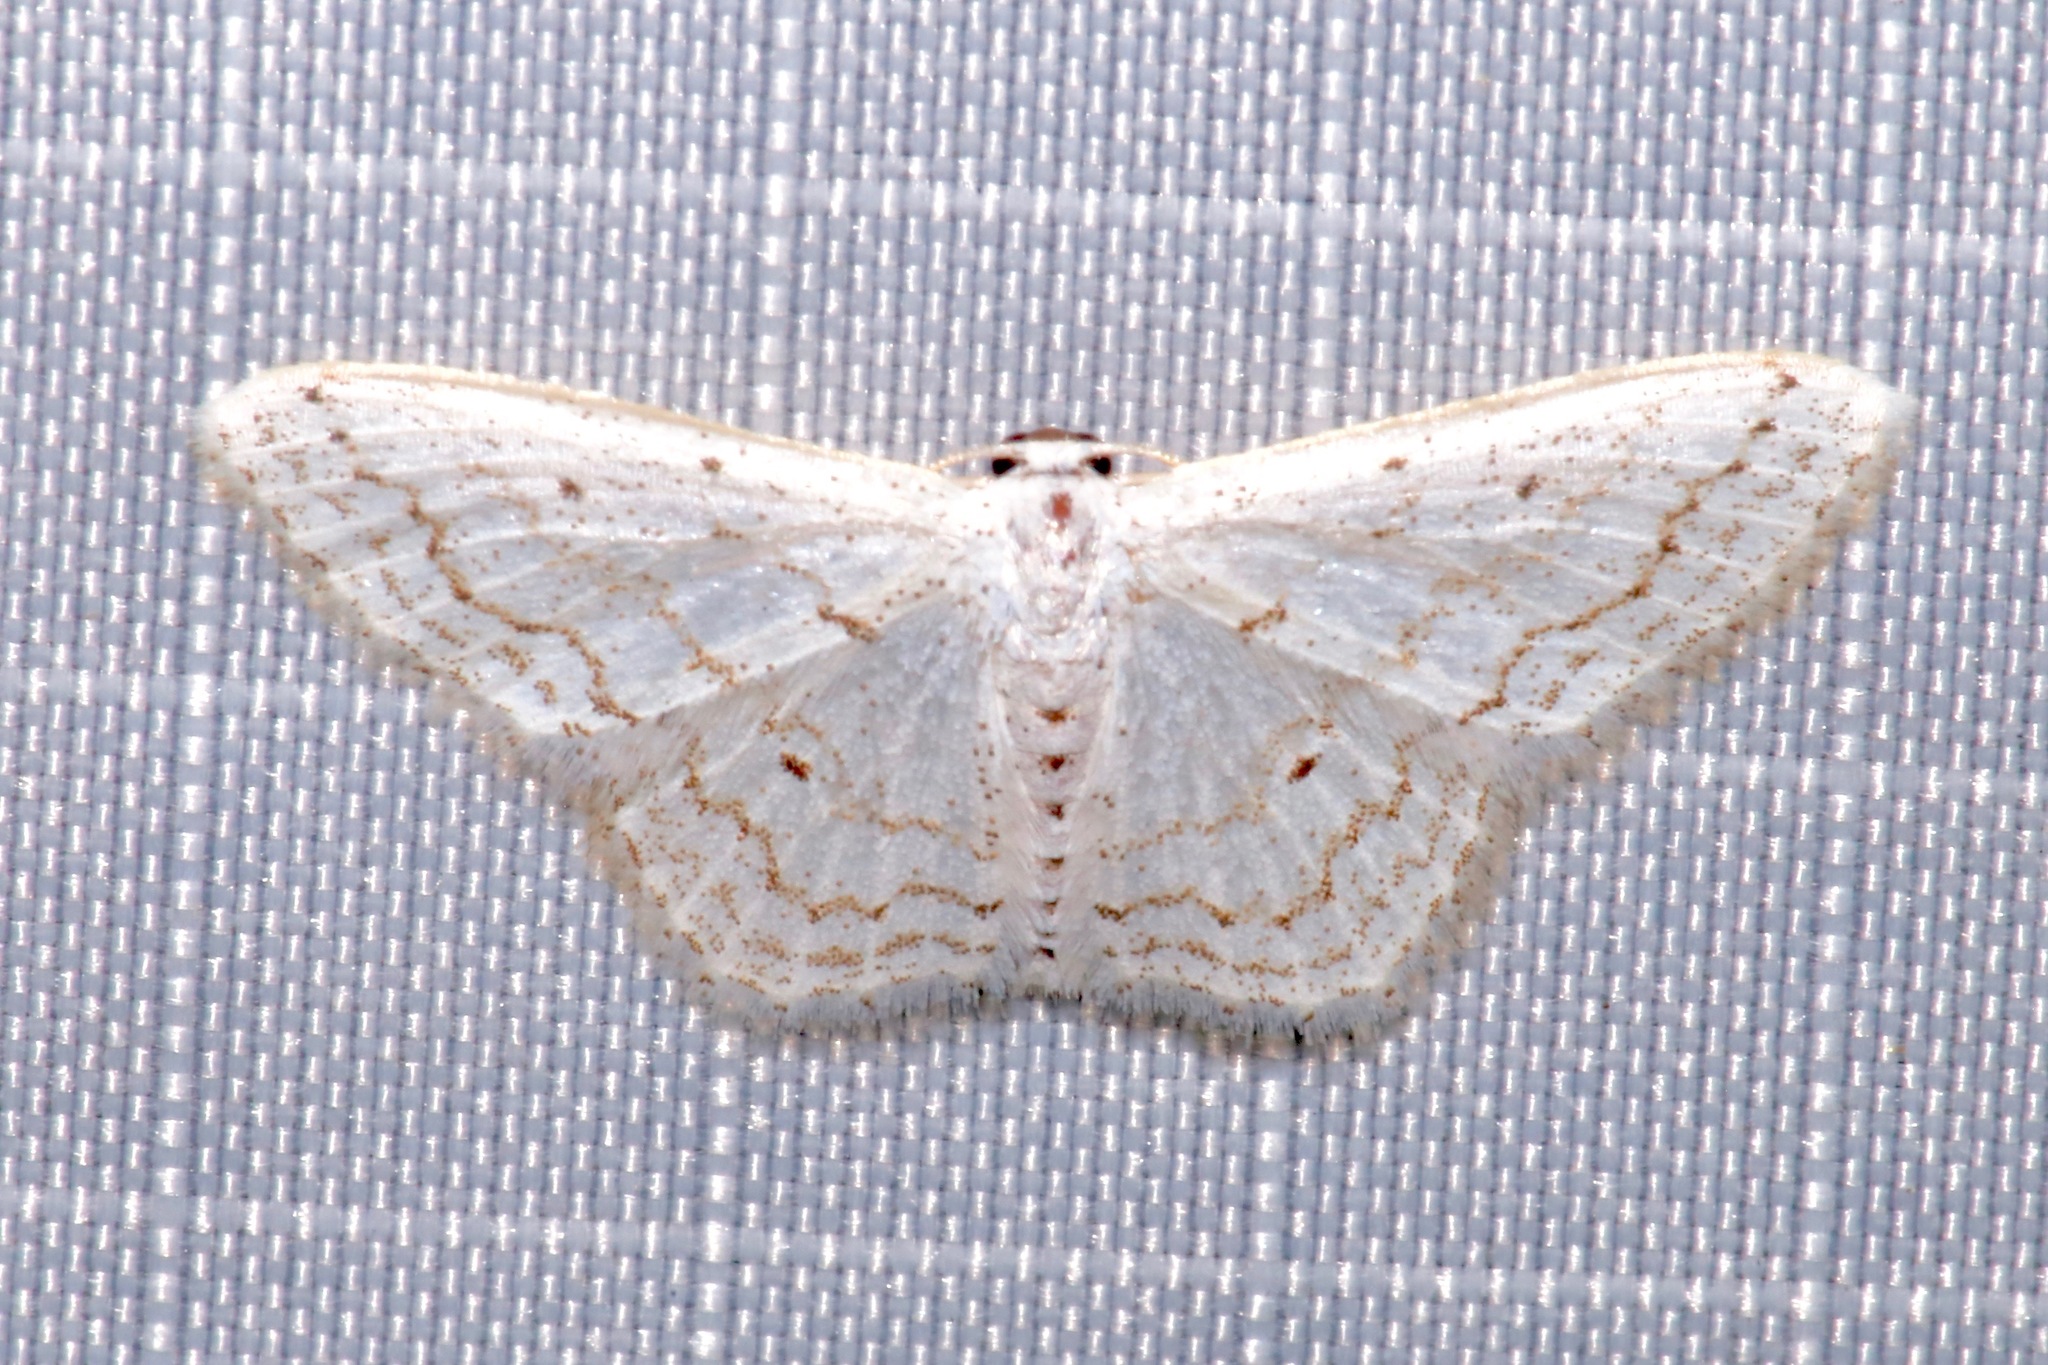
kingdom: Animalia
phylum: Arthropoda
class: Insecta
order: Lepidoptera
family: Geometridae
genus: Idaea
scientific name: Idaea tacturata
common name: Dot-lined wave
